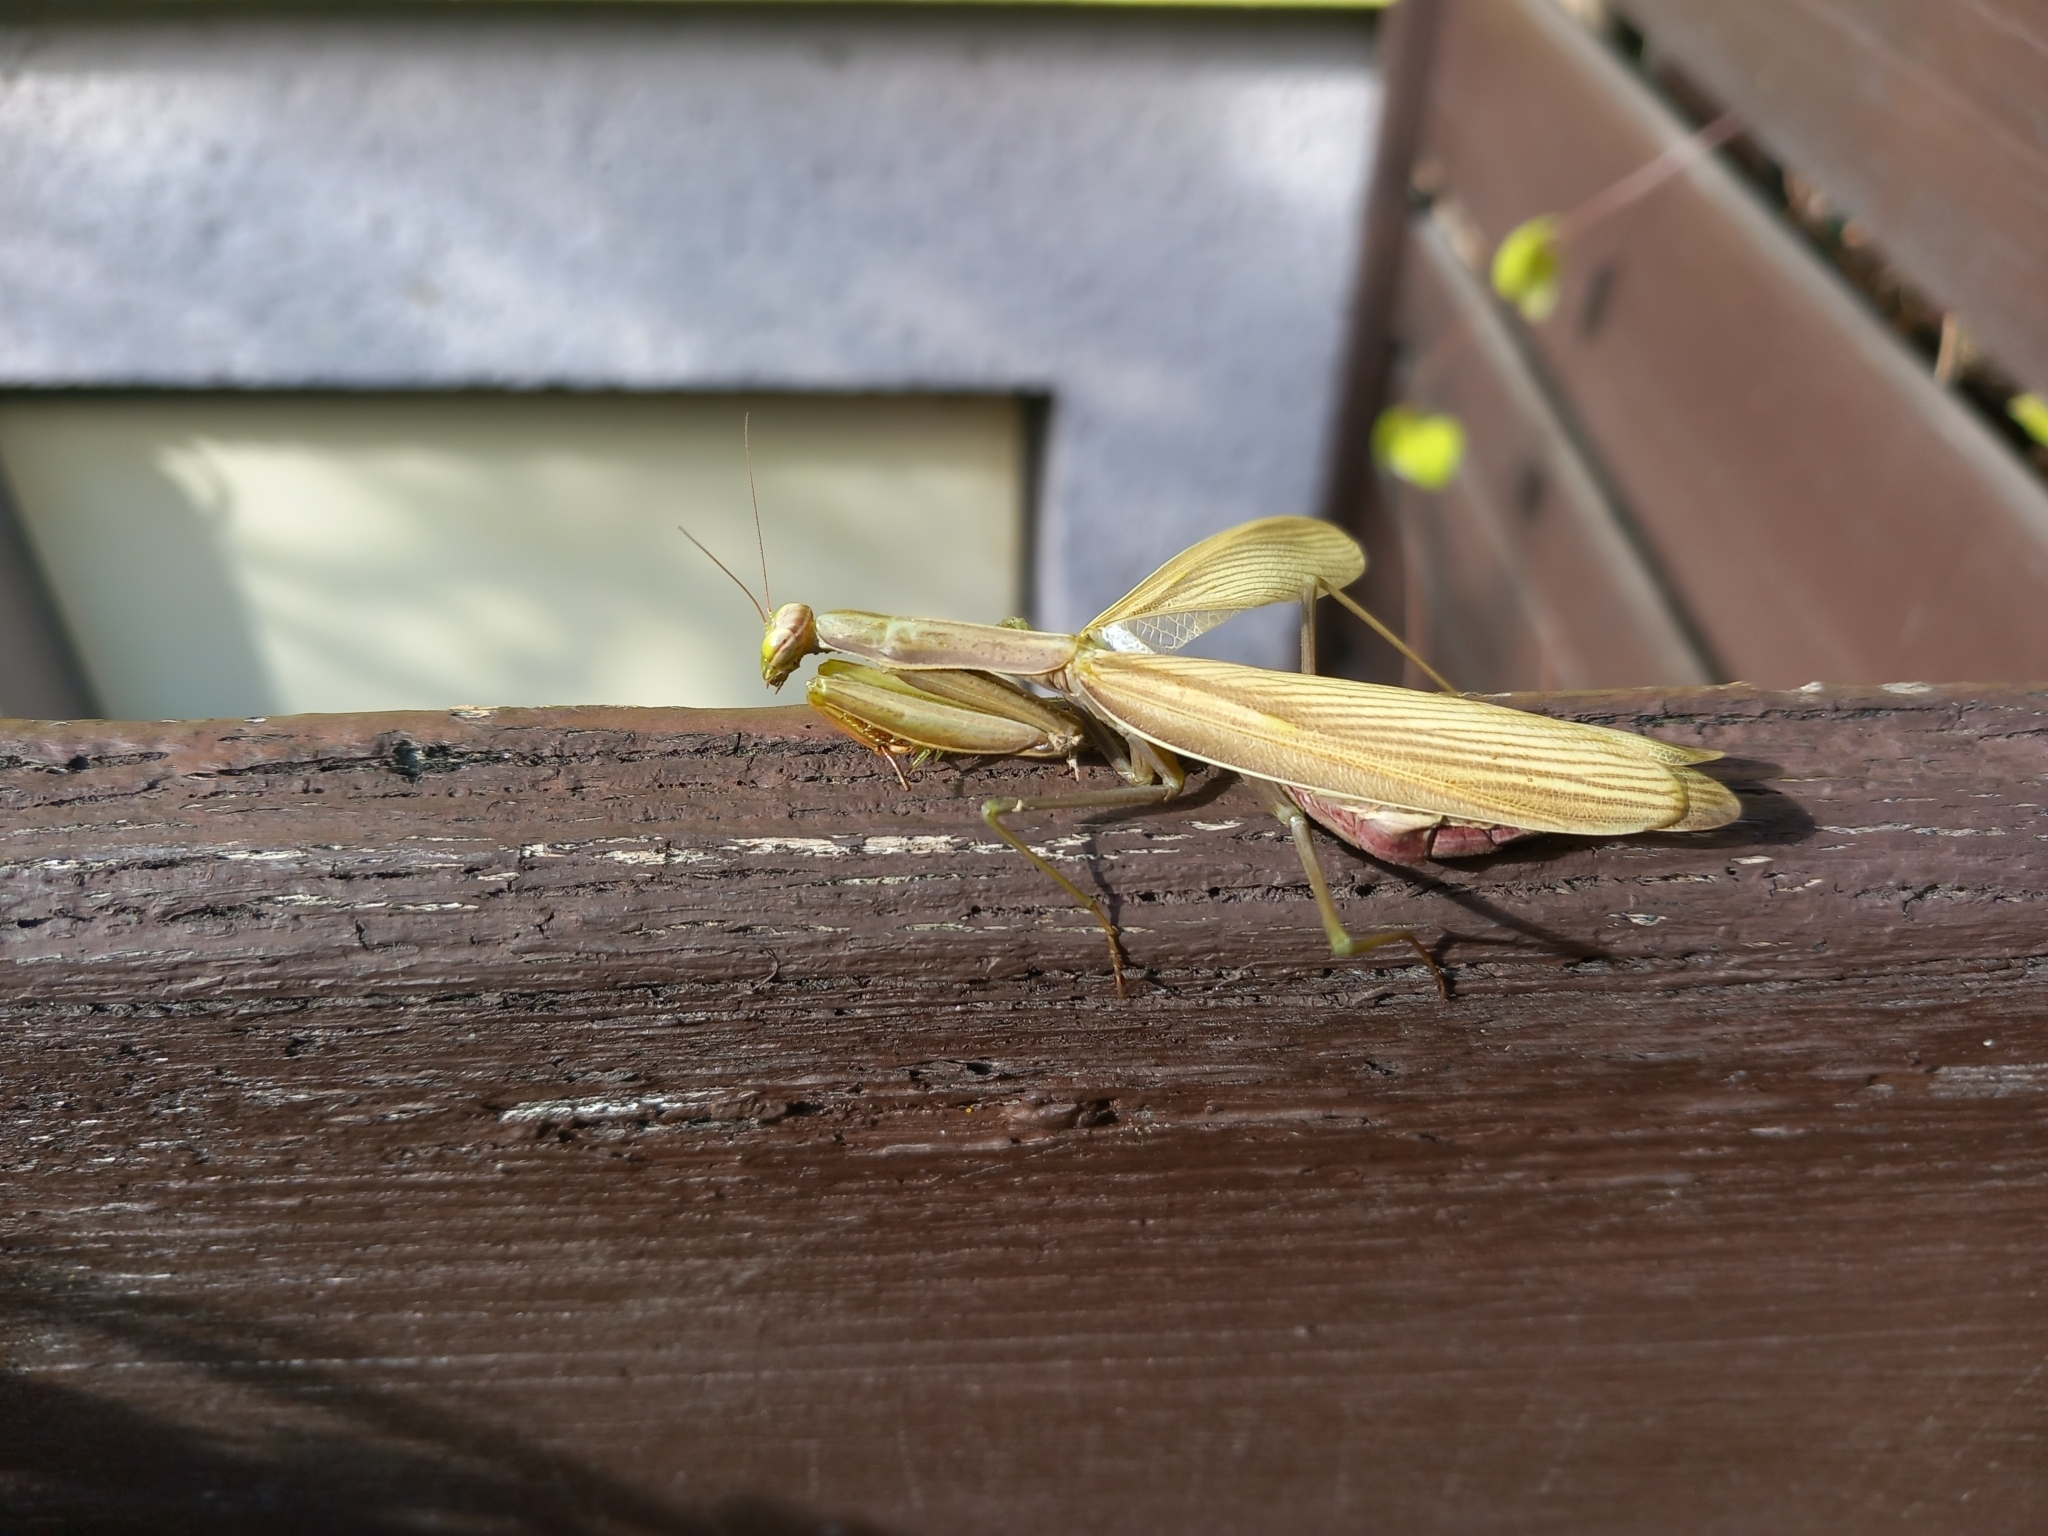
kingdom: Animalia
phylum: Arthropoda
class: Insecta
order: Mantodea
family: Mantidae
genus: Mantis
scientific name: Mantis religiosa
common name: Praying mantis
